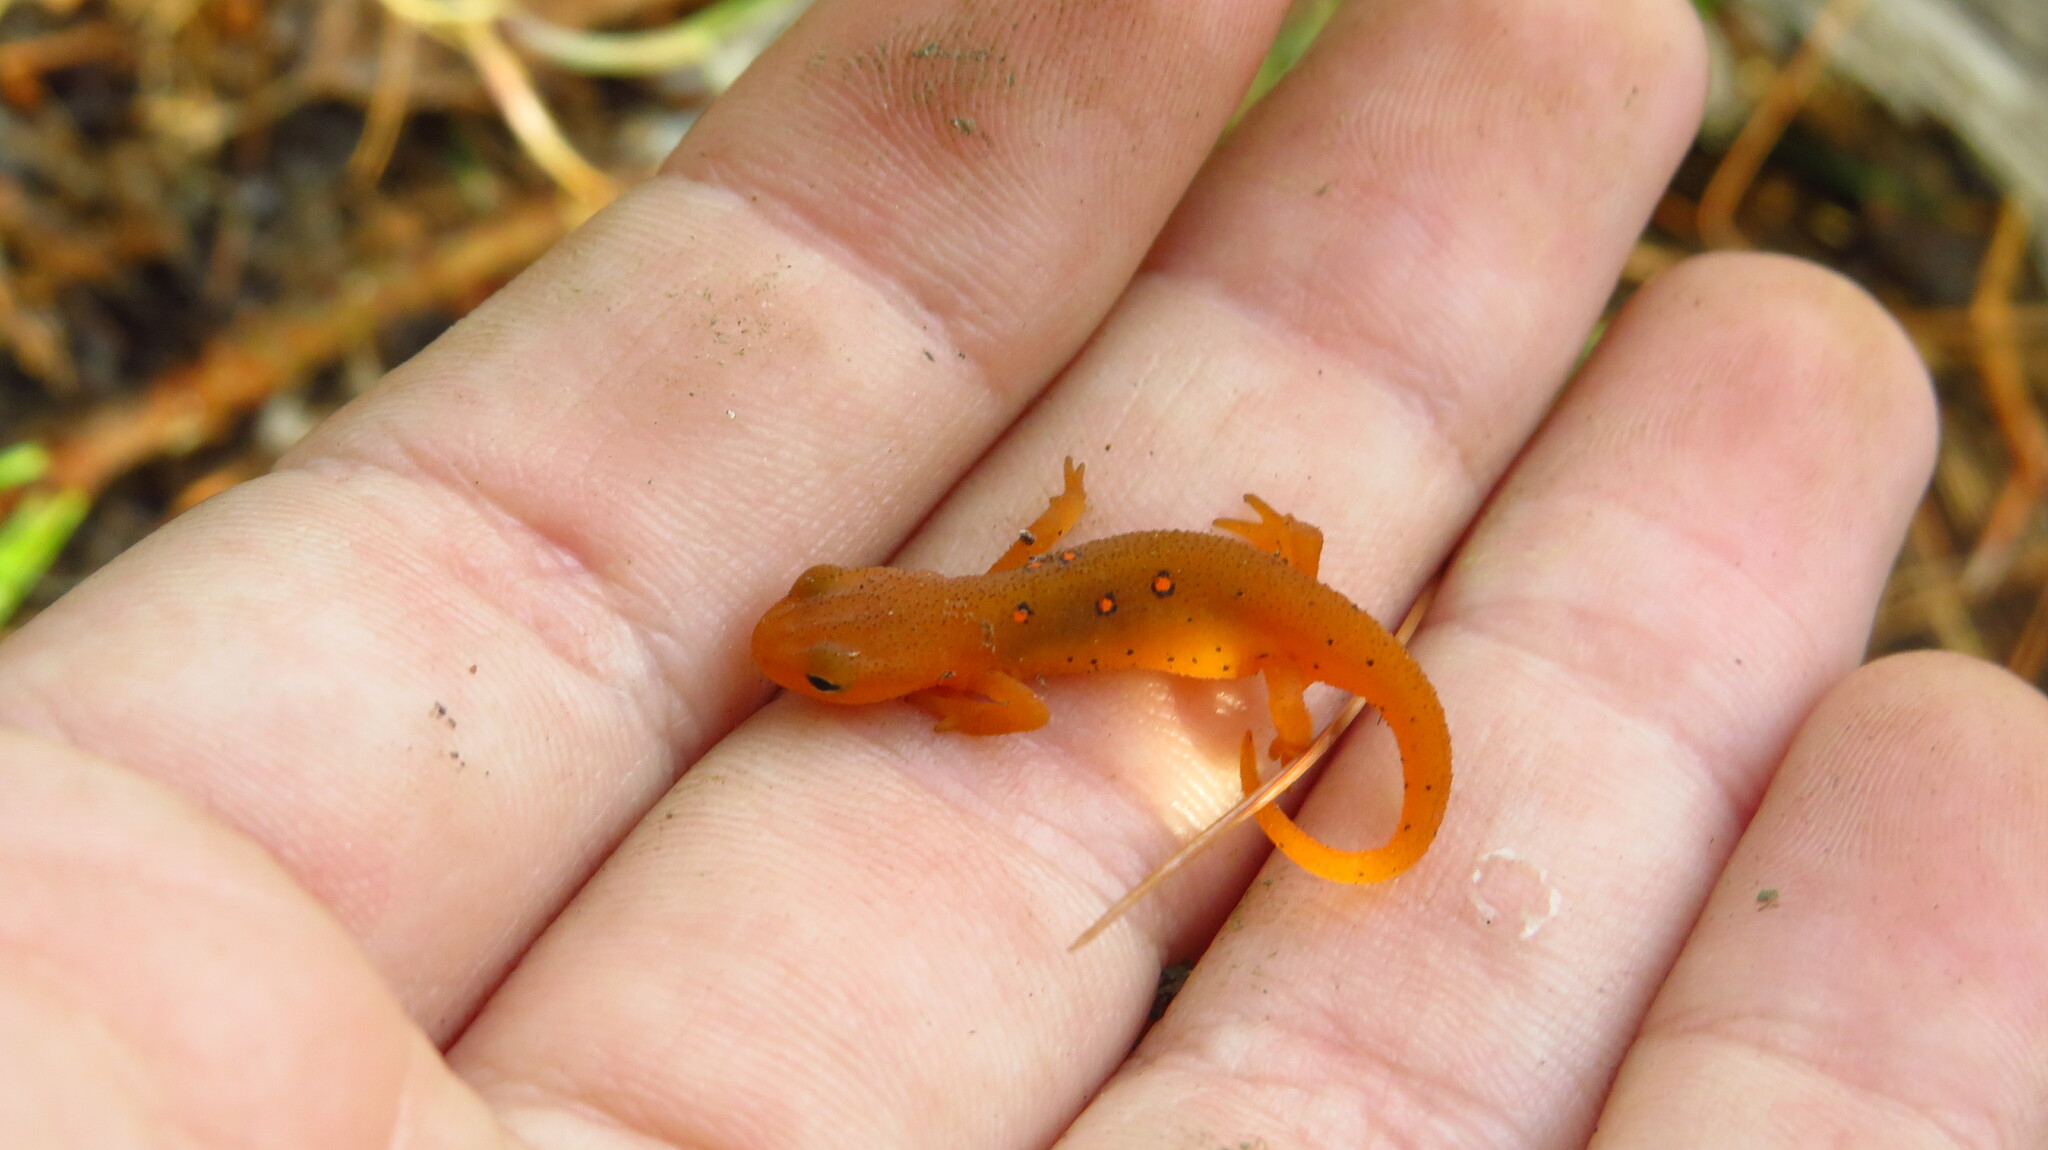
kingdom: Animalia
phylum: Chordata
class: Amphibia
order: Caudata
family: Salamandridae
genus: Notophthalmus
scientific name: Notophthalmus viridescens
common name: Eastern newt
